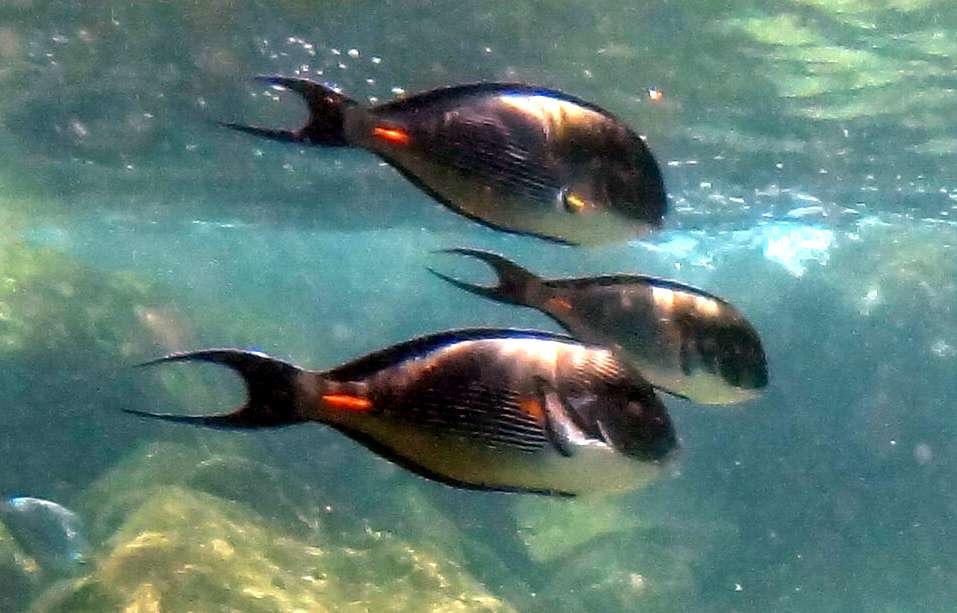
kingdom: Animalia
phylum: Chordata
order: Perciformes
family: Acanthuridae
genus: Acanthurus
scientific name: Acanthurus sohal
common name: Red sea surgeonfish
